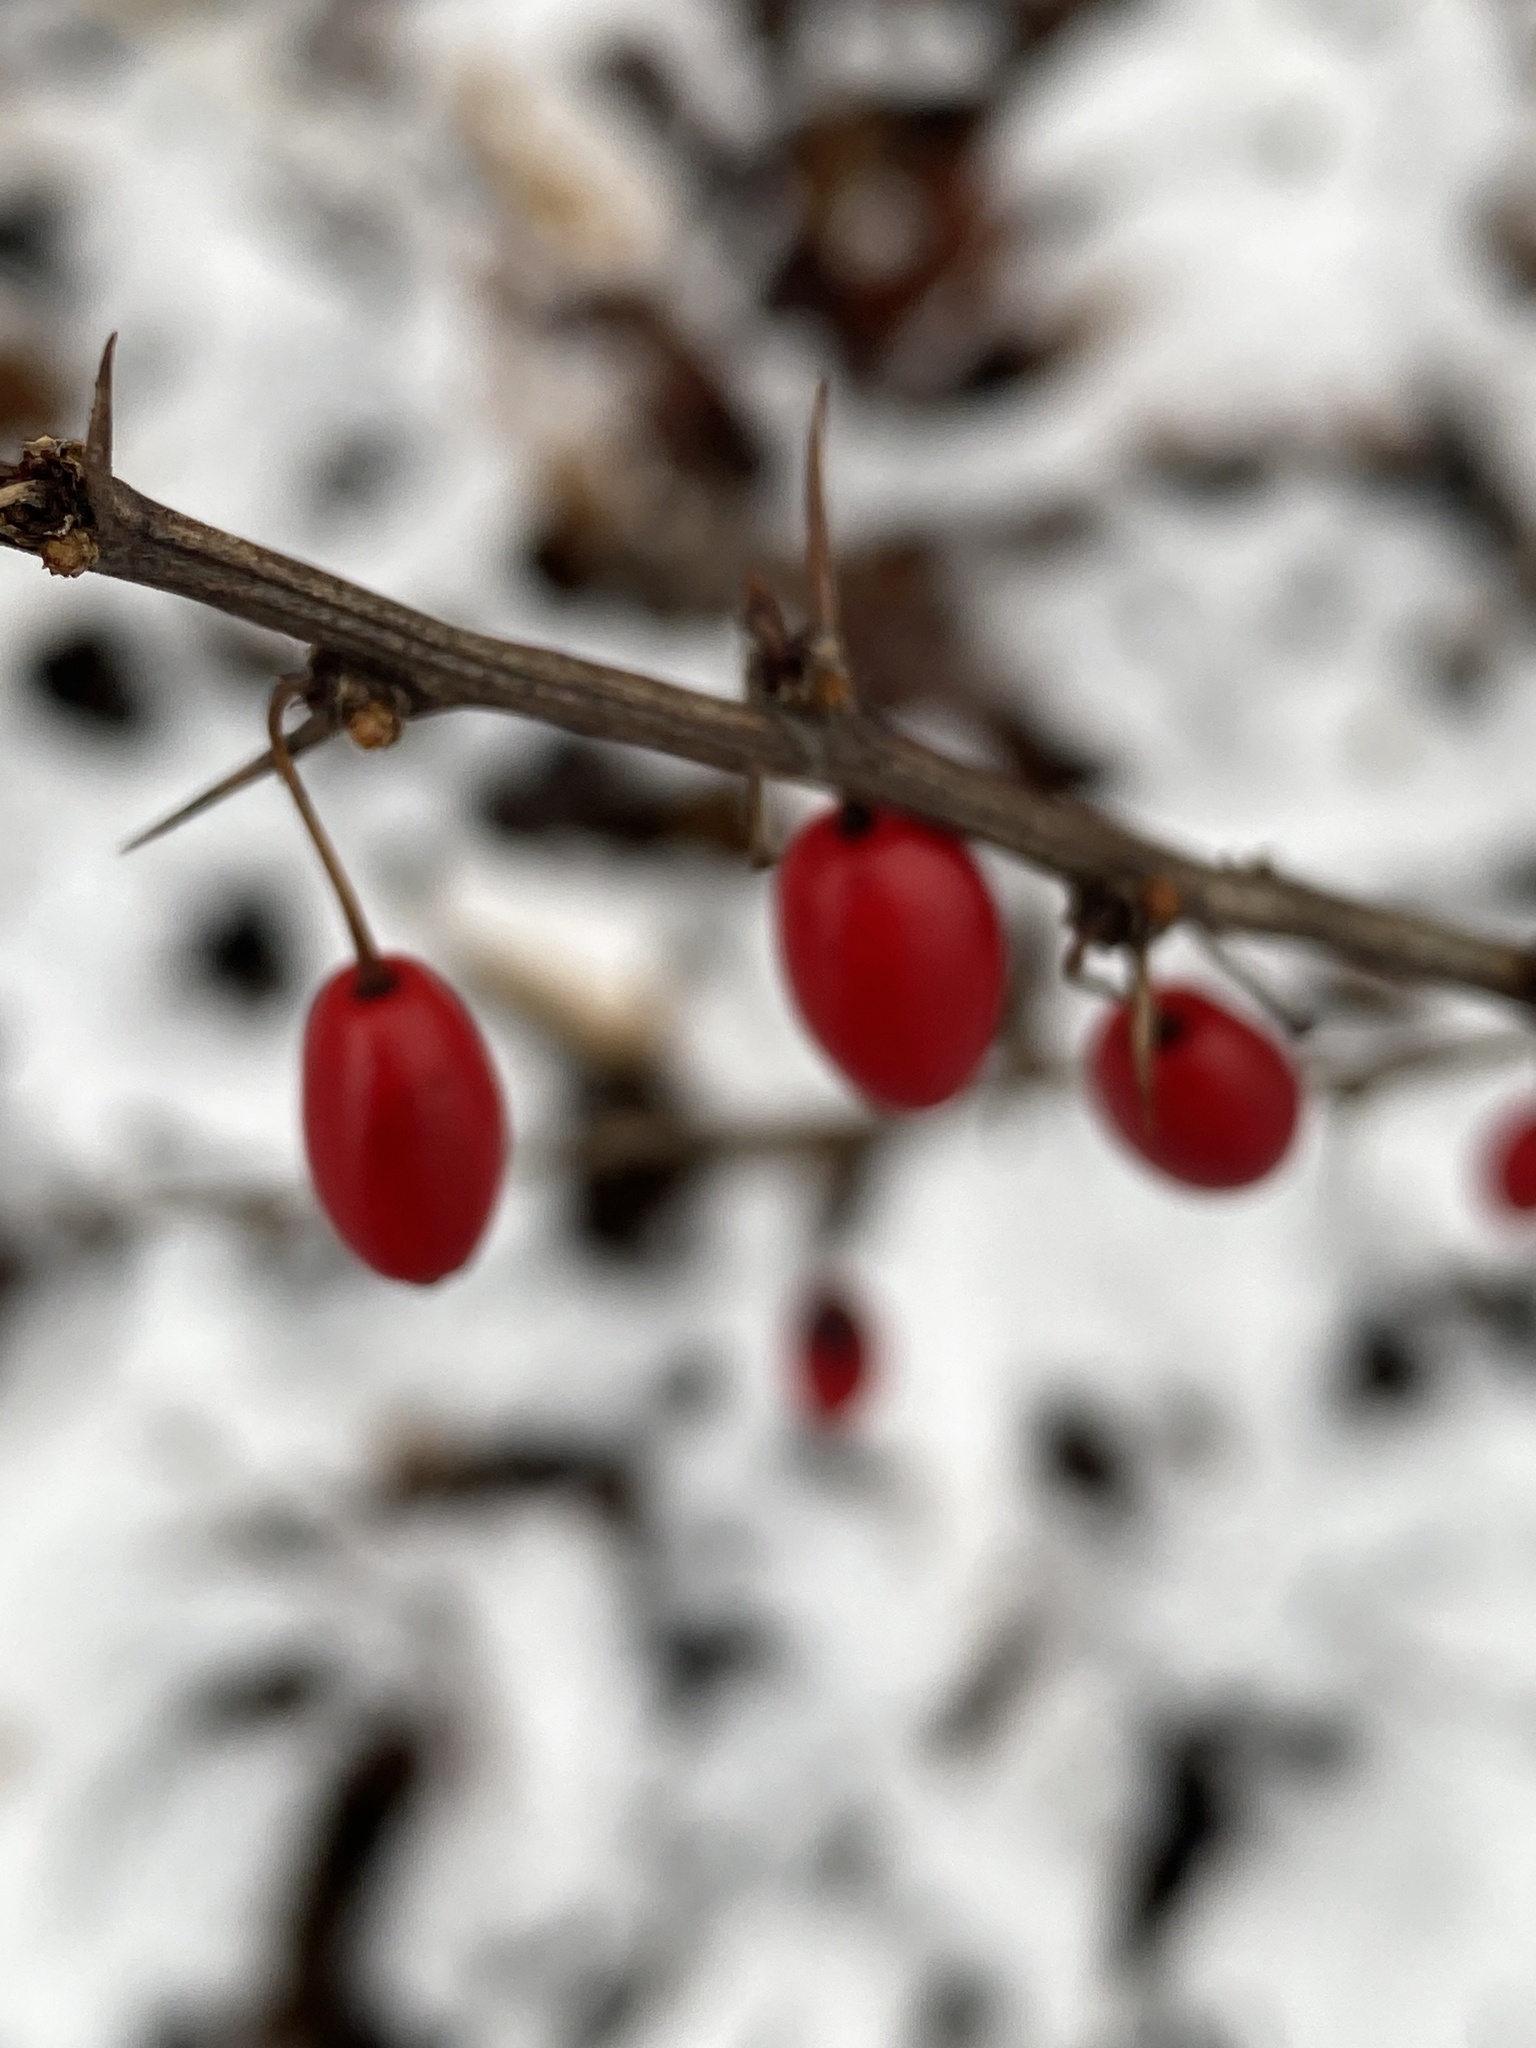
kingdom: Plantae
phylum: Tracheophyta
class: Magnoliopsida
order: Ranunculales
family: Berberidaceae
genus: Berberis
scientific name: Berberis thunbergii
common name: Japanese barberry
